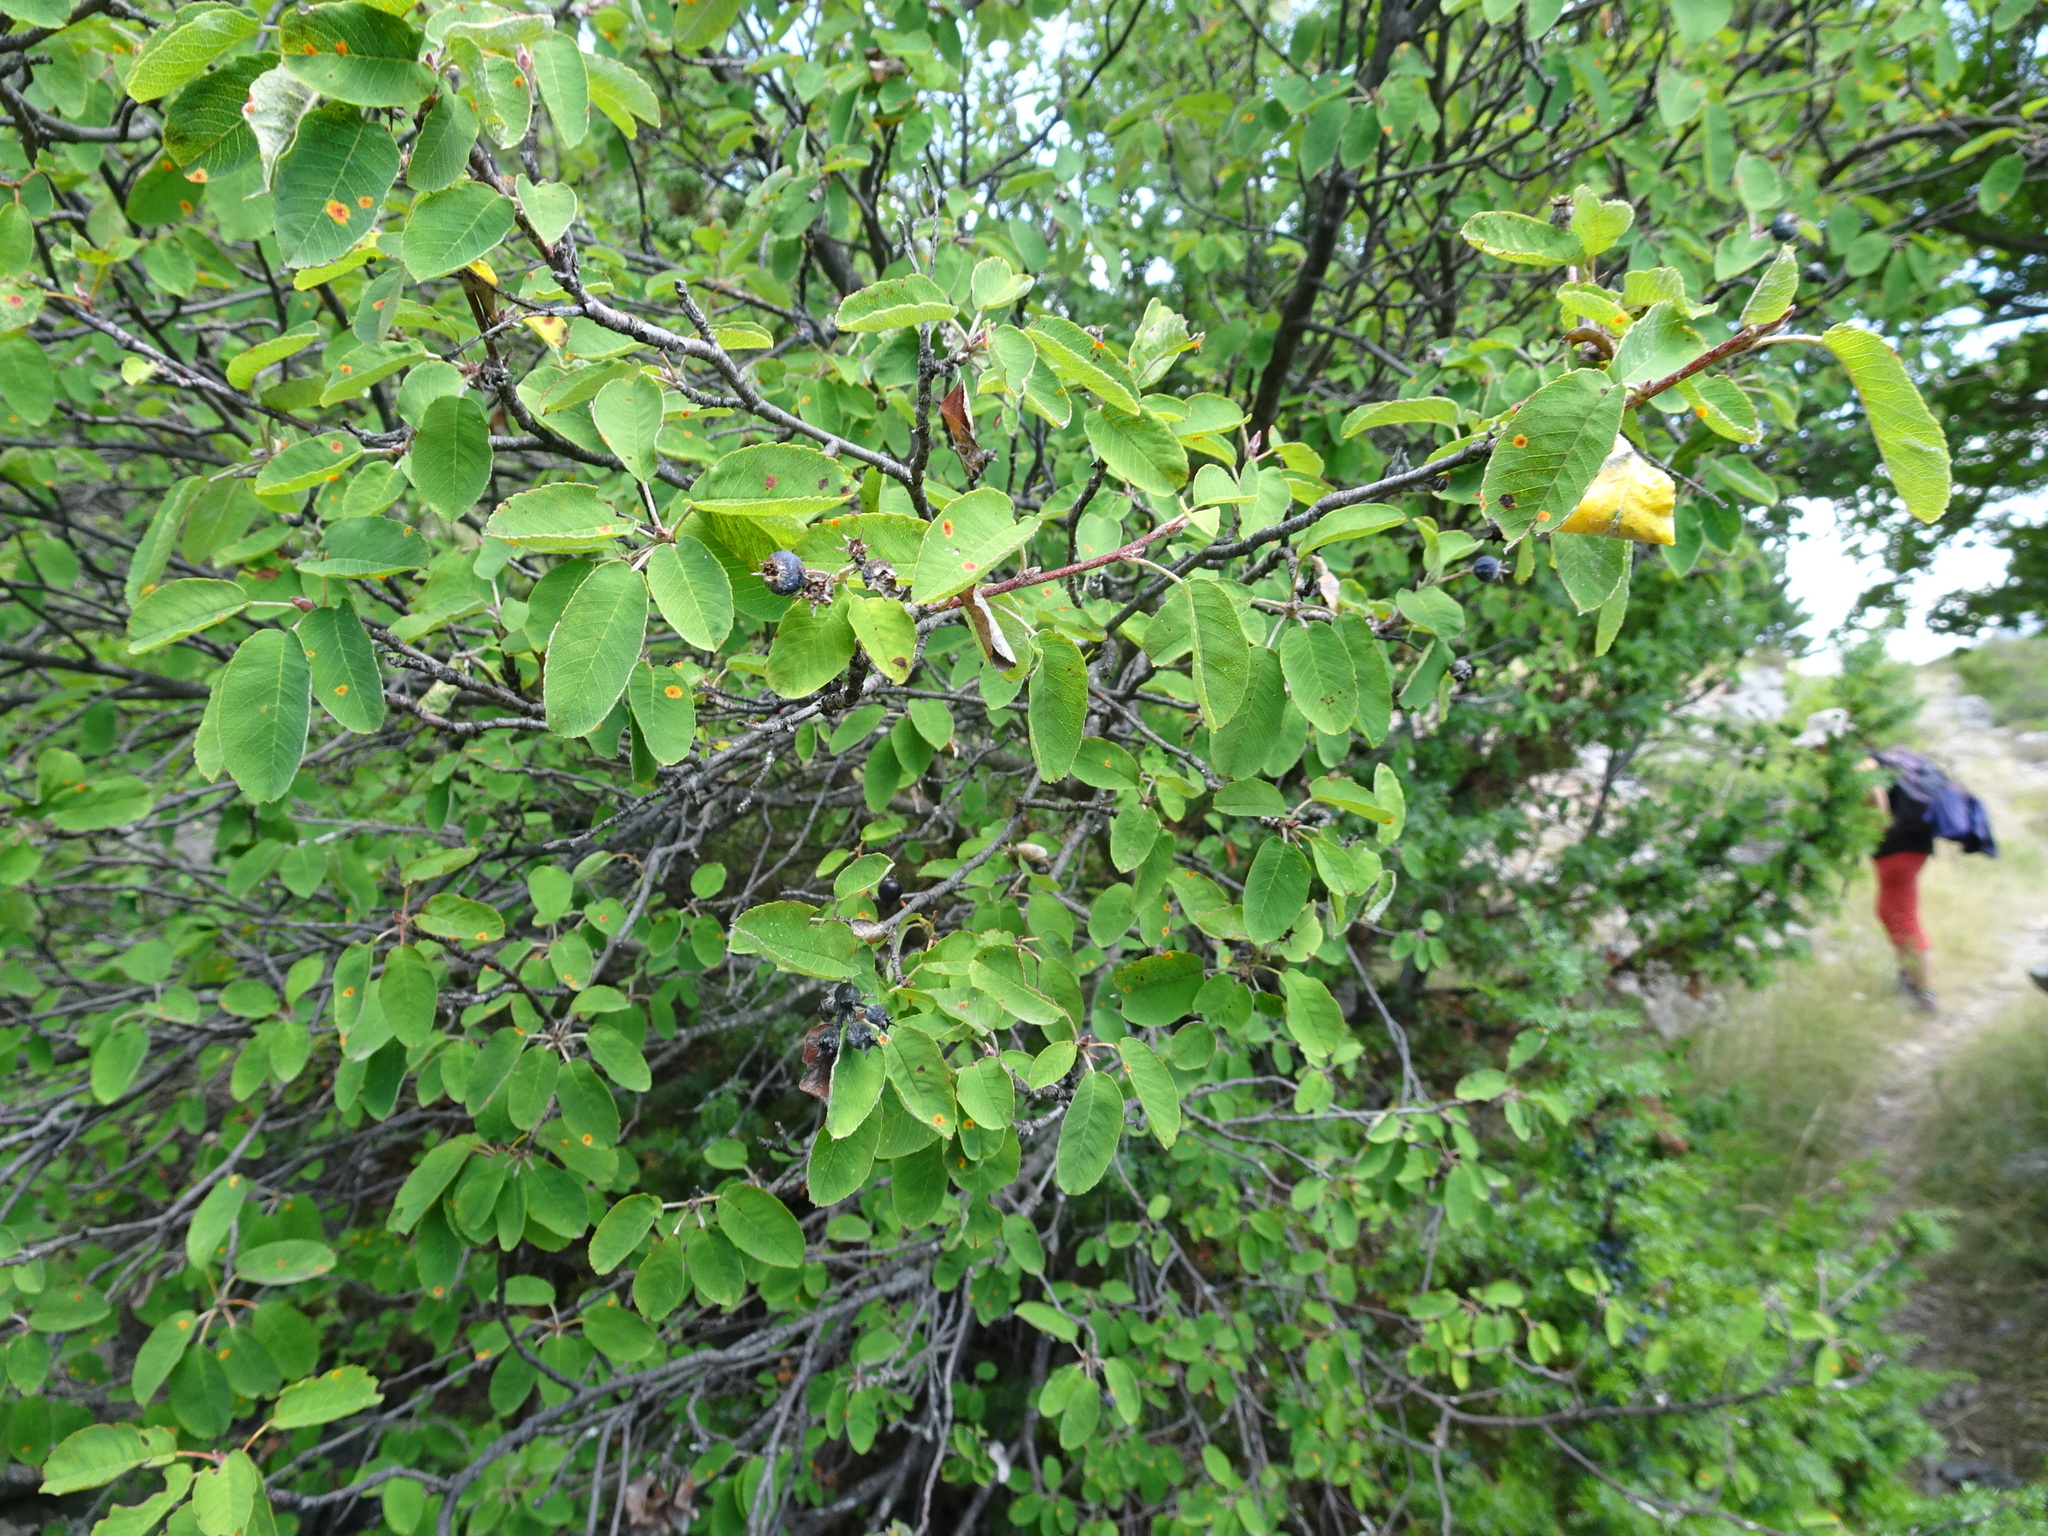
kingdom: Plantae
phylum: Tracheophyta
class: Magnoliopsida
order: Rosales
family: Rosaceae
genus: Amelanchier
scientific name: Amelanchier ovalis
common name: Serviceberry
